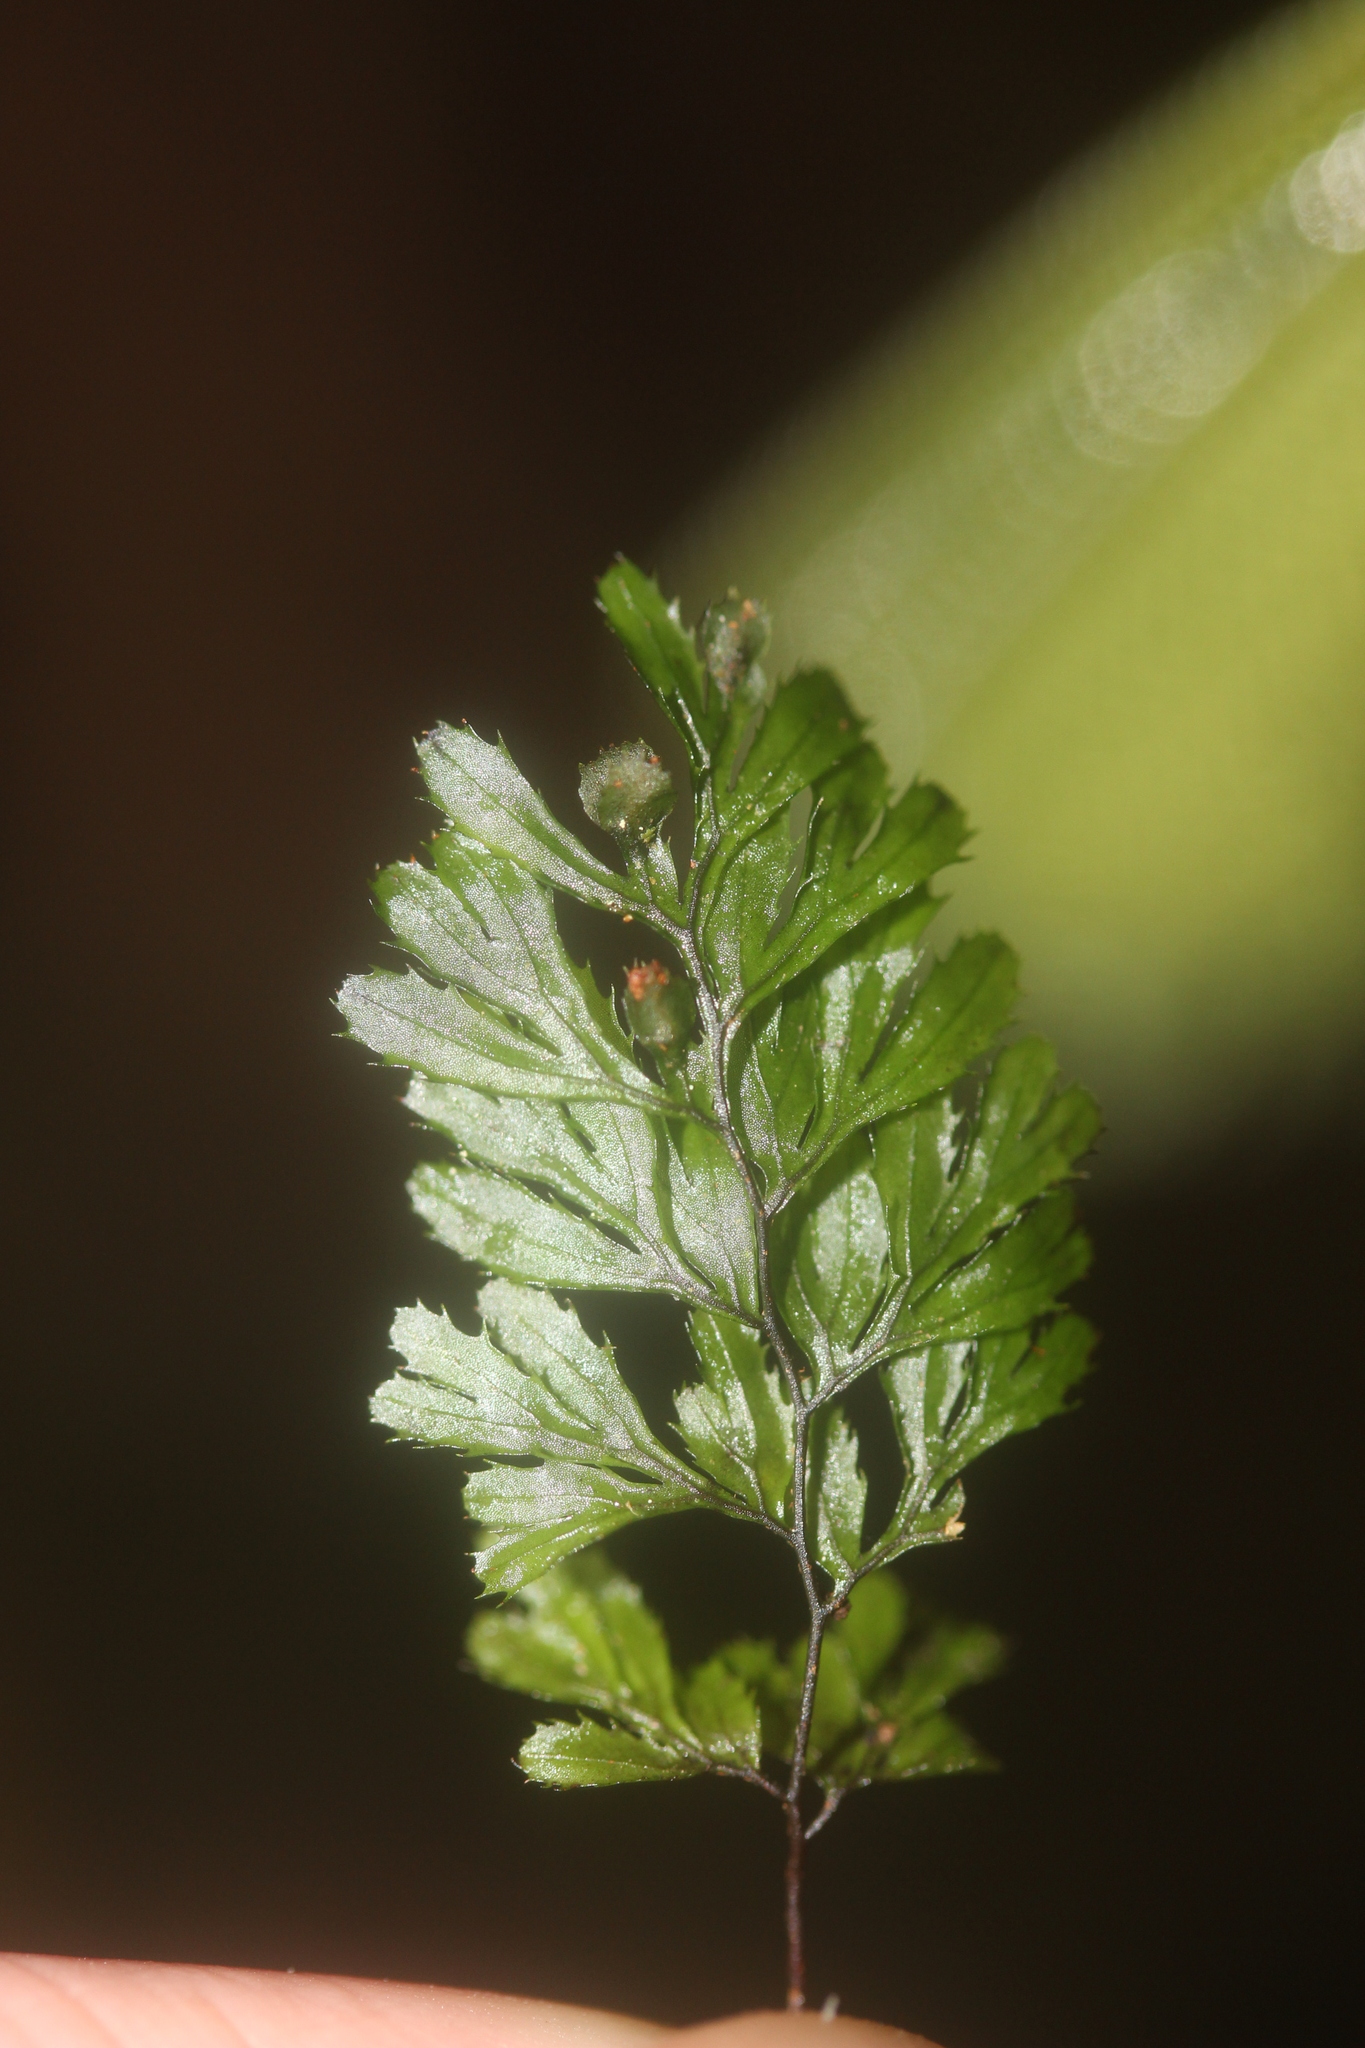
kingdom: Plantae
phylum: Tracheophyta
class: Polypodiopsida
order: Hymenophyllales
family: Hymenophyllaceae
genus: Hymenophyllum
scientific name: Hymenophyllum revolutum
